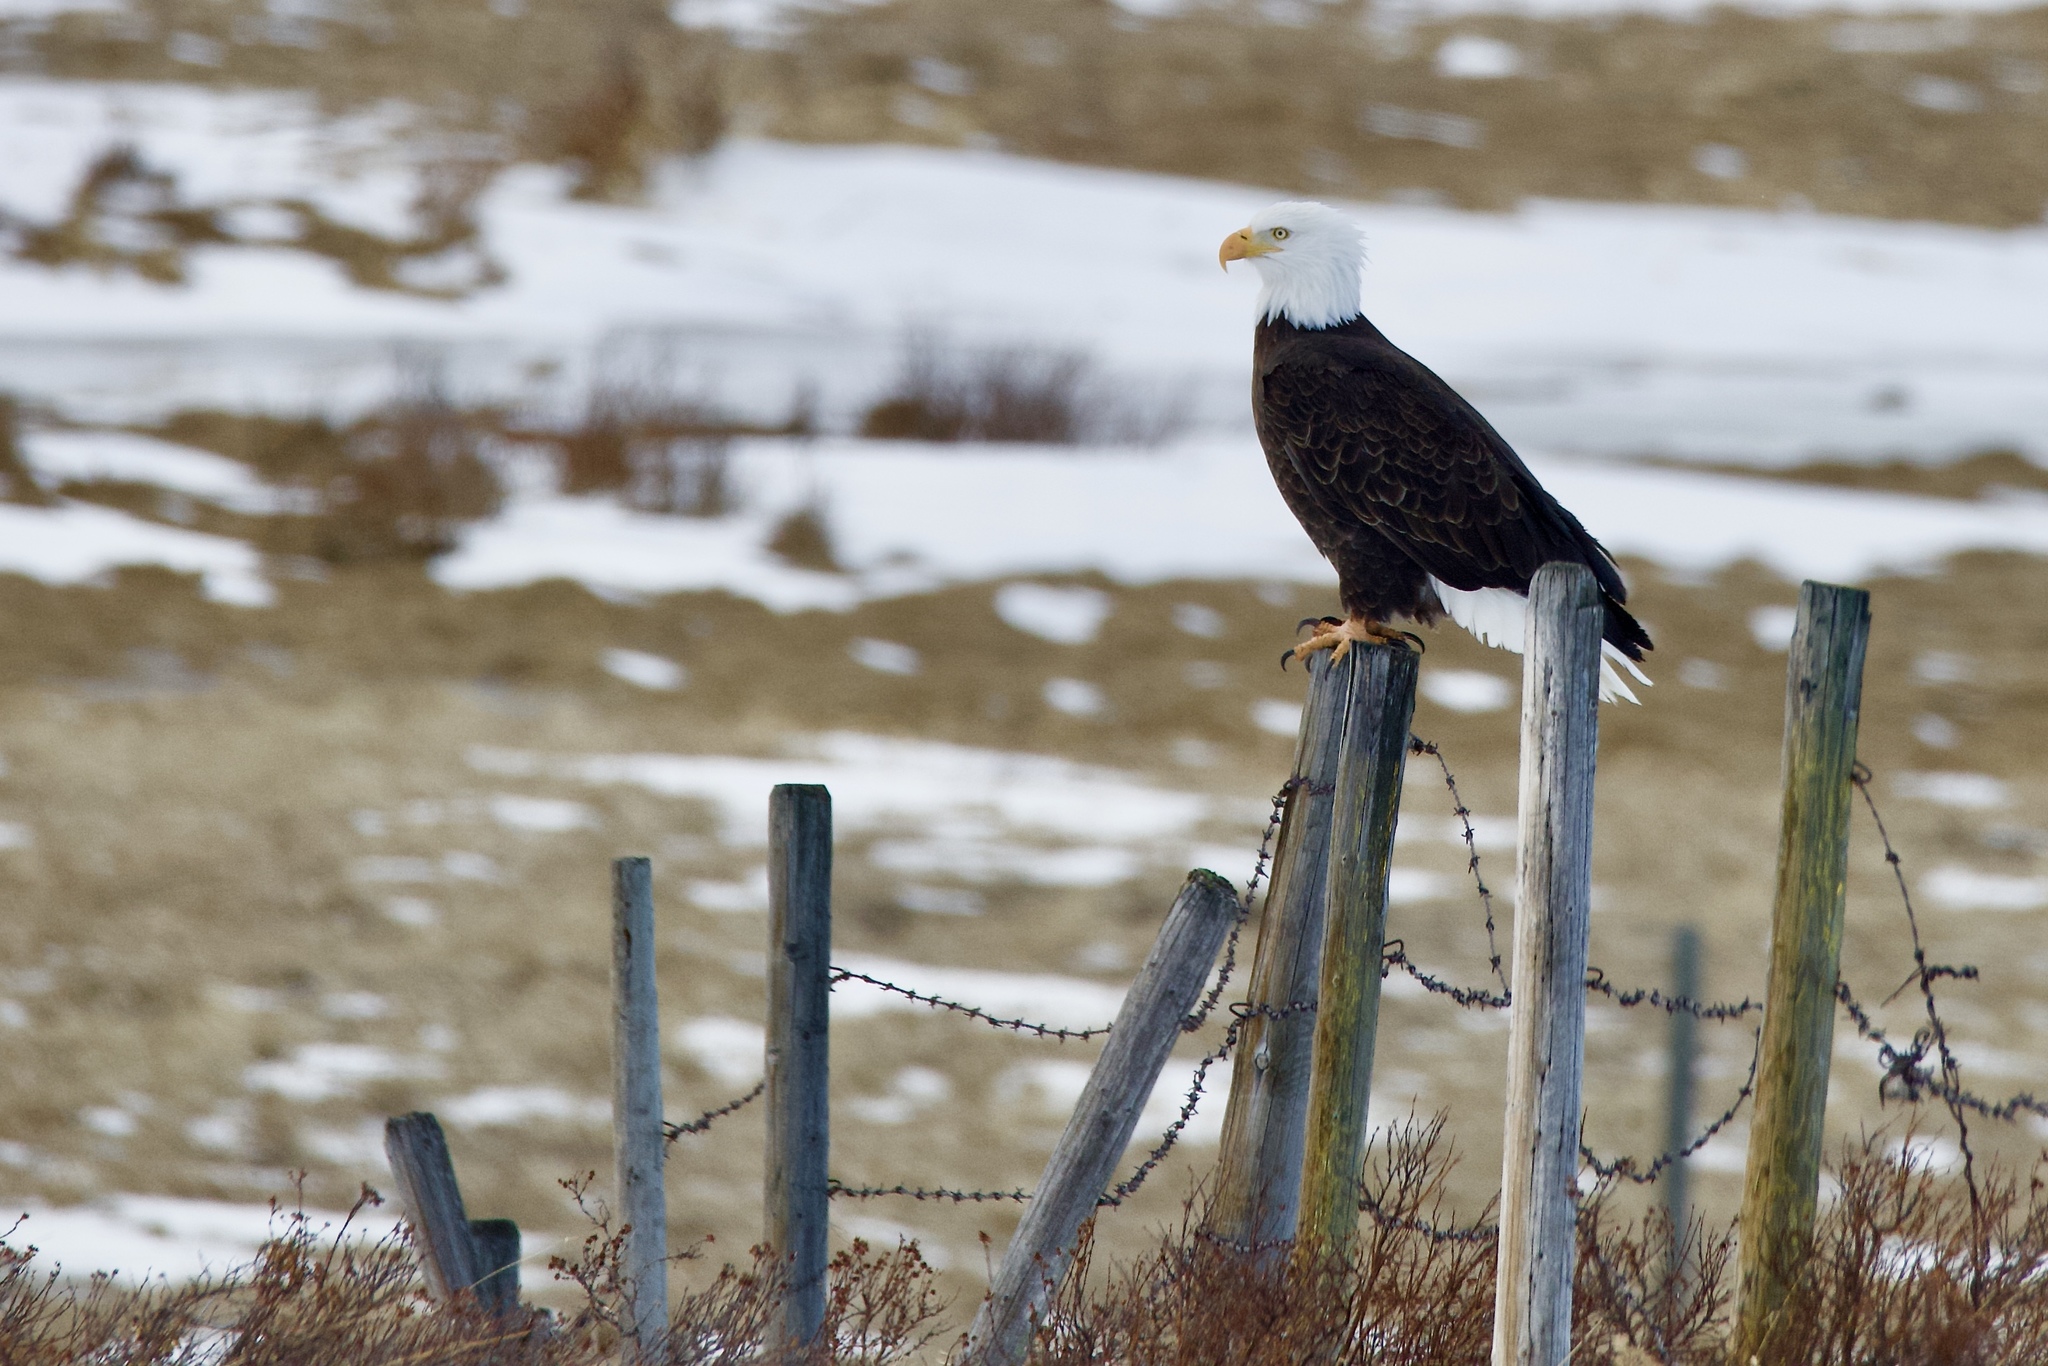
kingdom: Animalia
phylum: Chordata
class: Aves
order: Accipitriformes
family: Accipitridae
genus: Haliaeetus
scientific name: Haliaeetus leucocephalus
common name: Bald eagle
